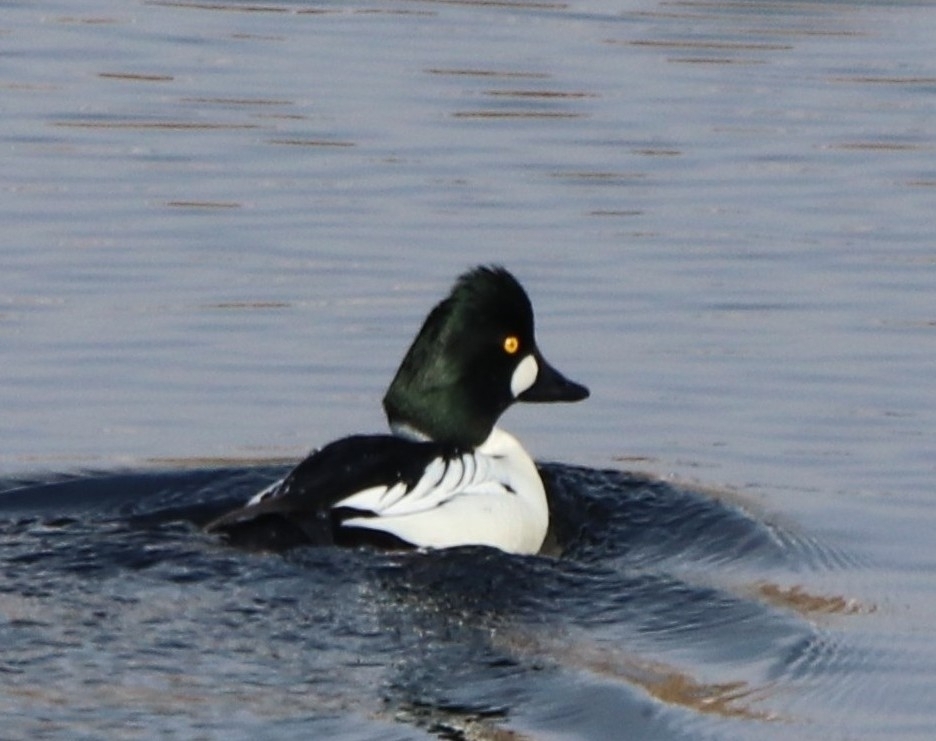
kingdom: Animalia
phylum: Chordata
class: Aves
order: Anseriformes
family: Anatidae
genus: Bucephala
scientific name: Bucephala clangula
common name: Common goldeneye
